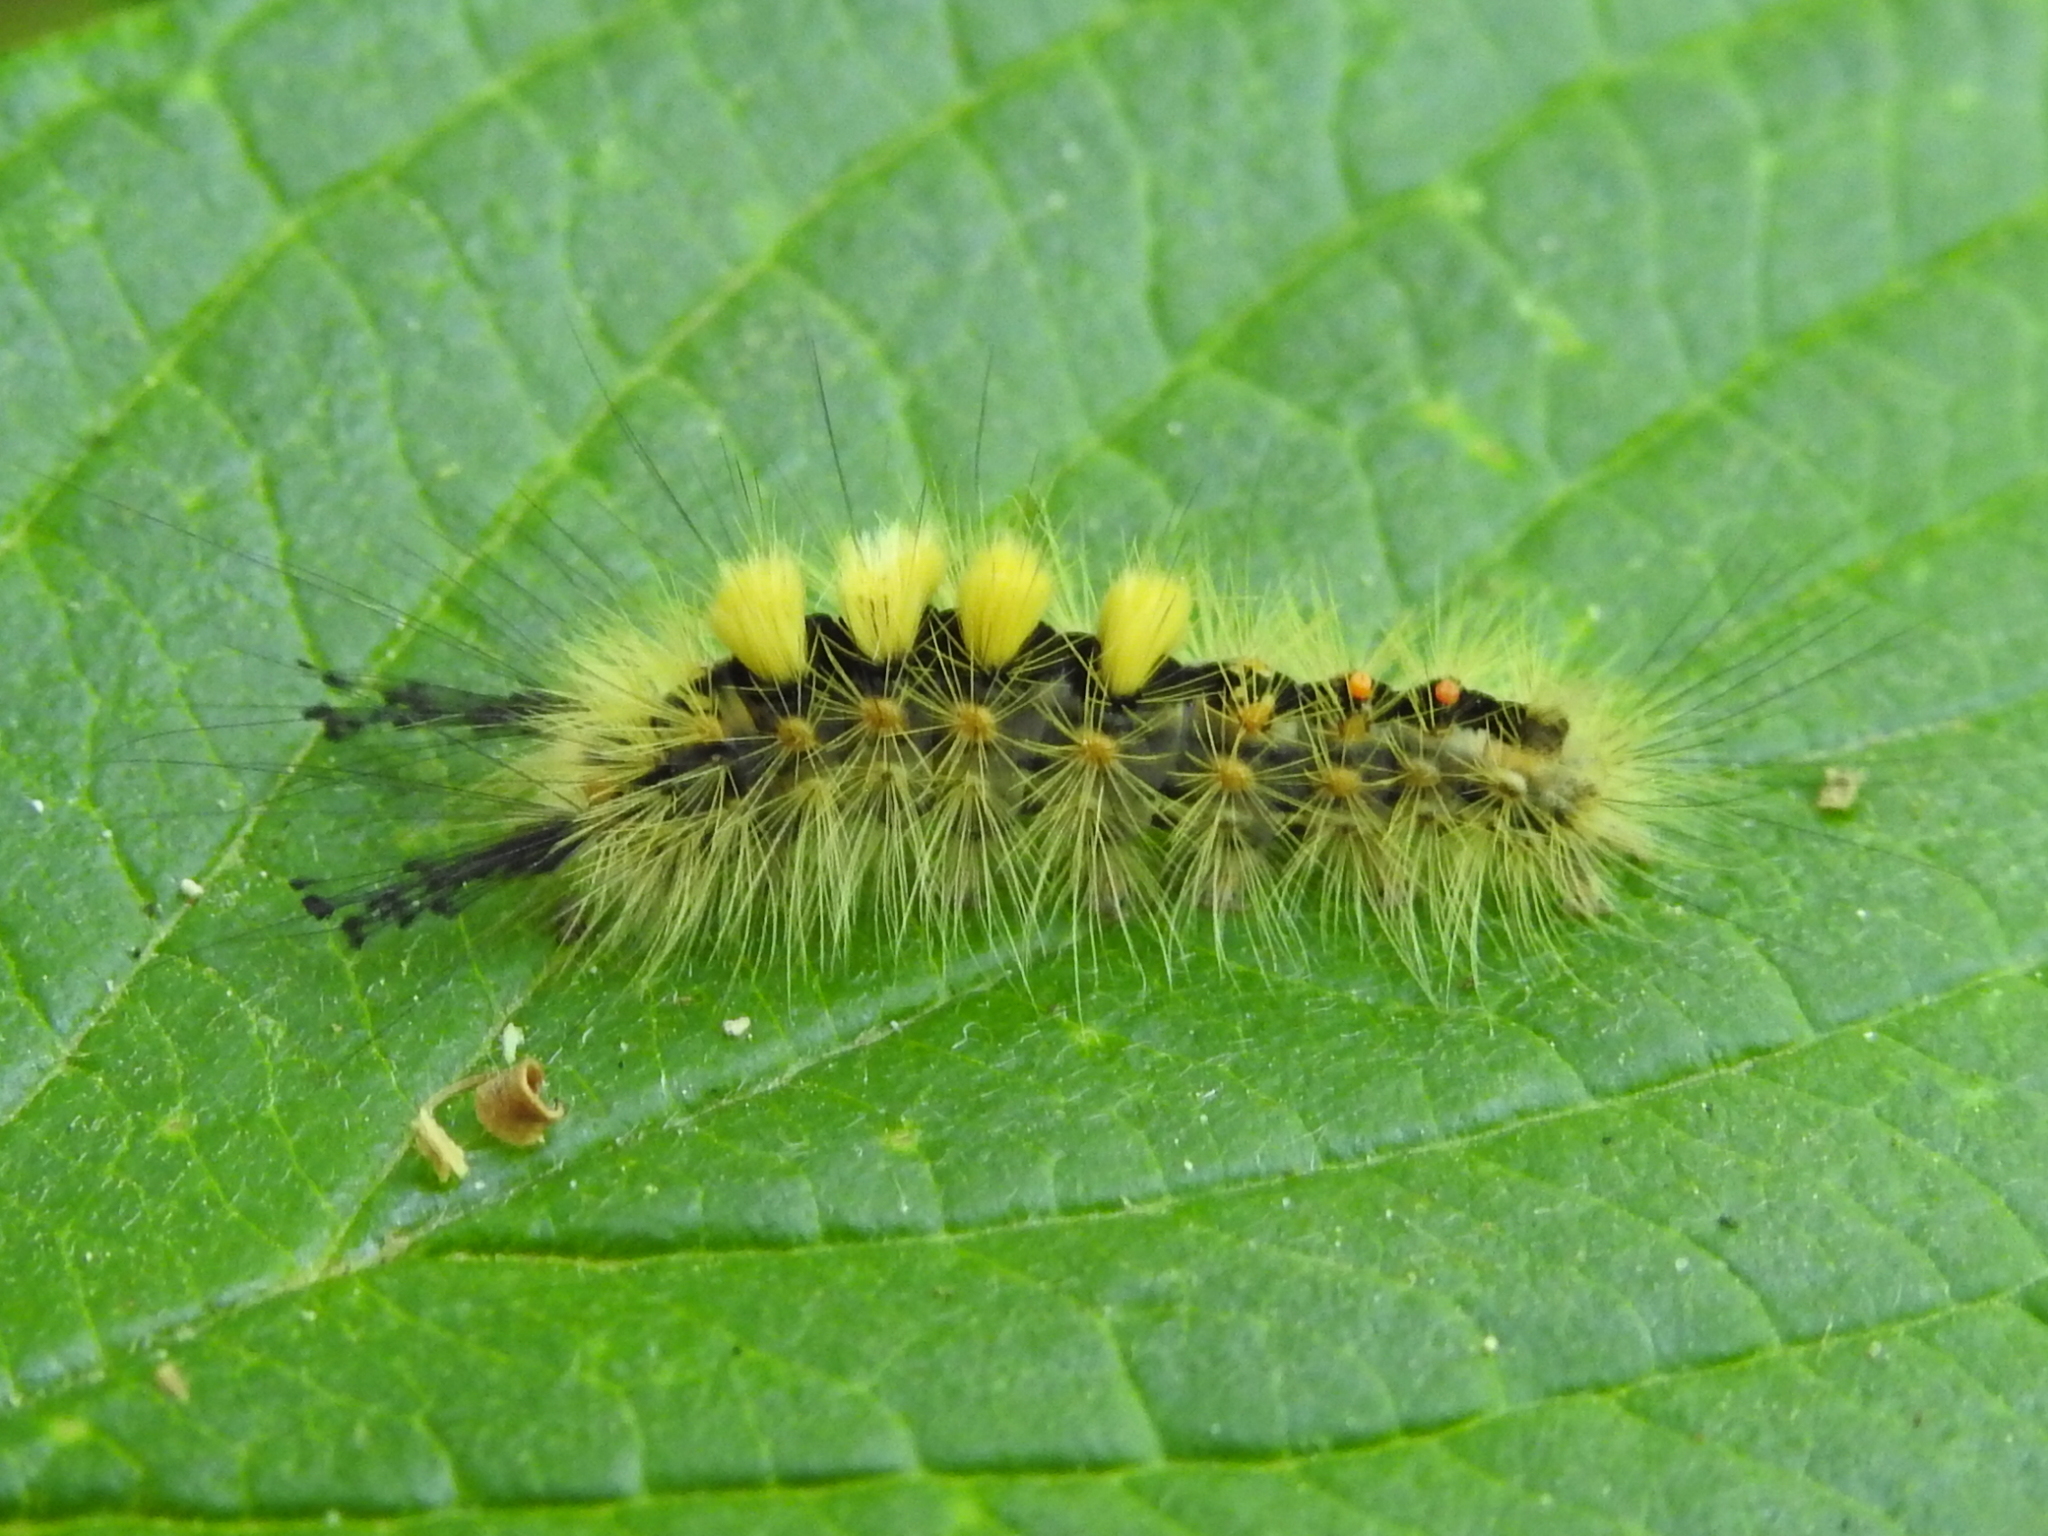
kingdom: Animalia
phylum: Arthropoda
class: Insecta
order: Lepidoptera
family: Erebidae
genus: Orgyia
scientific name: Orgyia antiqua
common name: Vapourer
